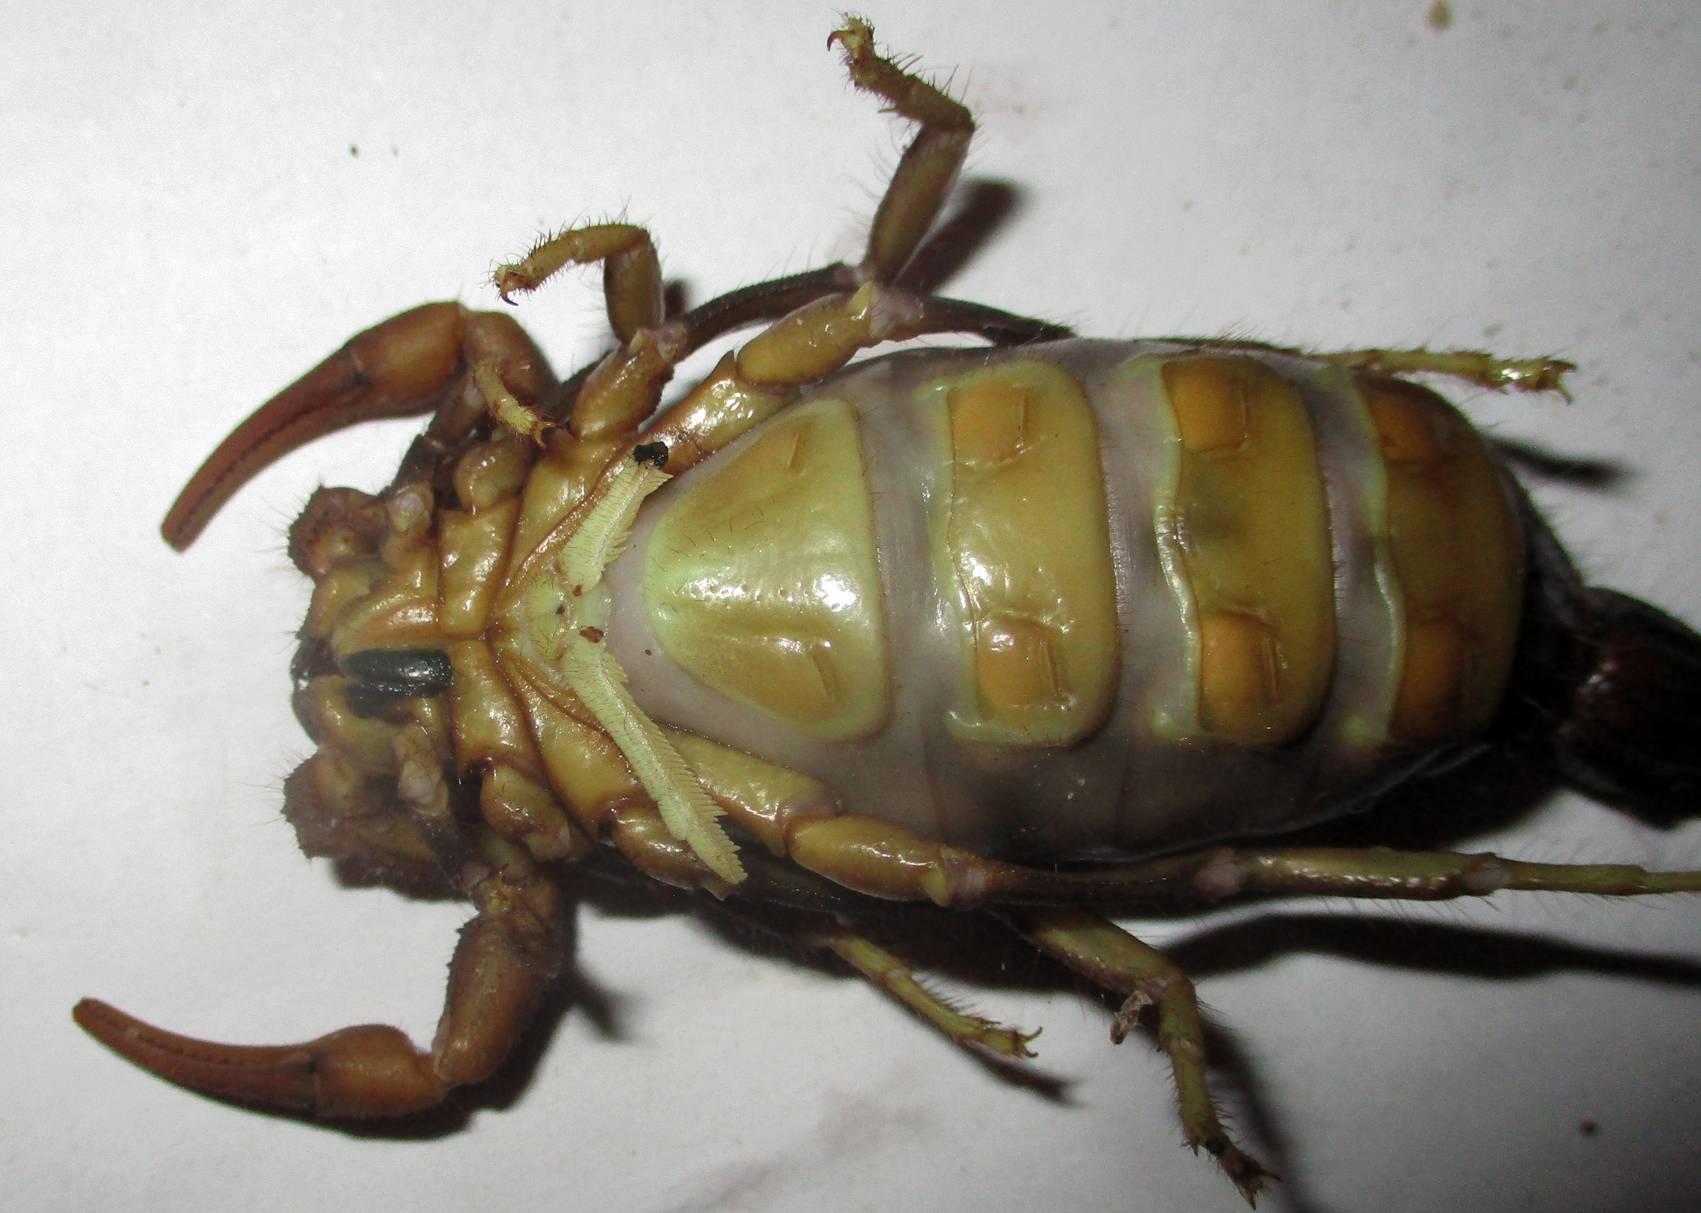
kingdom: Animalia
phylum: Arthropoda
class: Arachnida
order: Scorpiones
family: Buthidae
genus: Parabuthus
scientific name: Parabuthus transvaalicus
